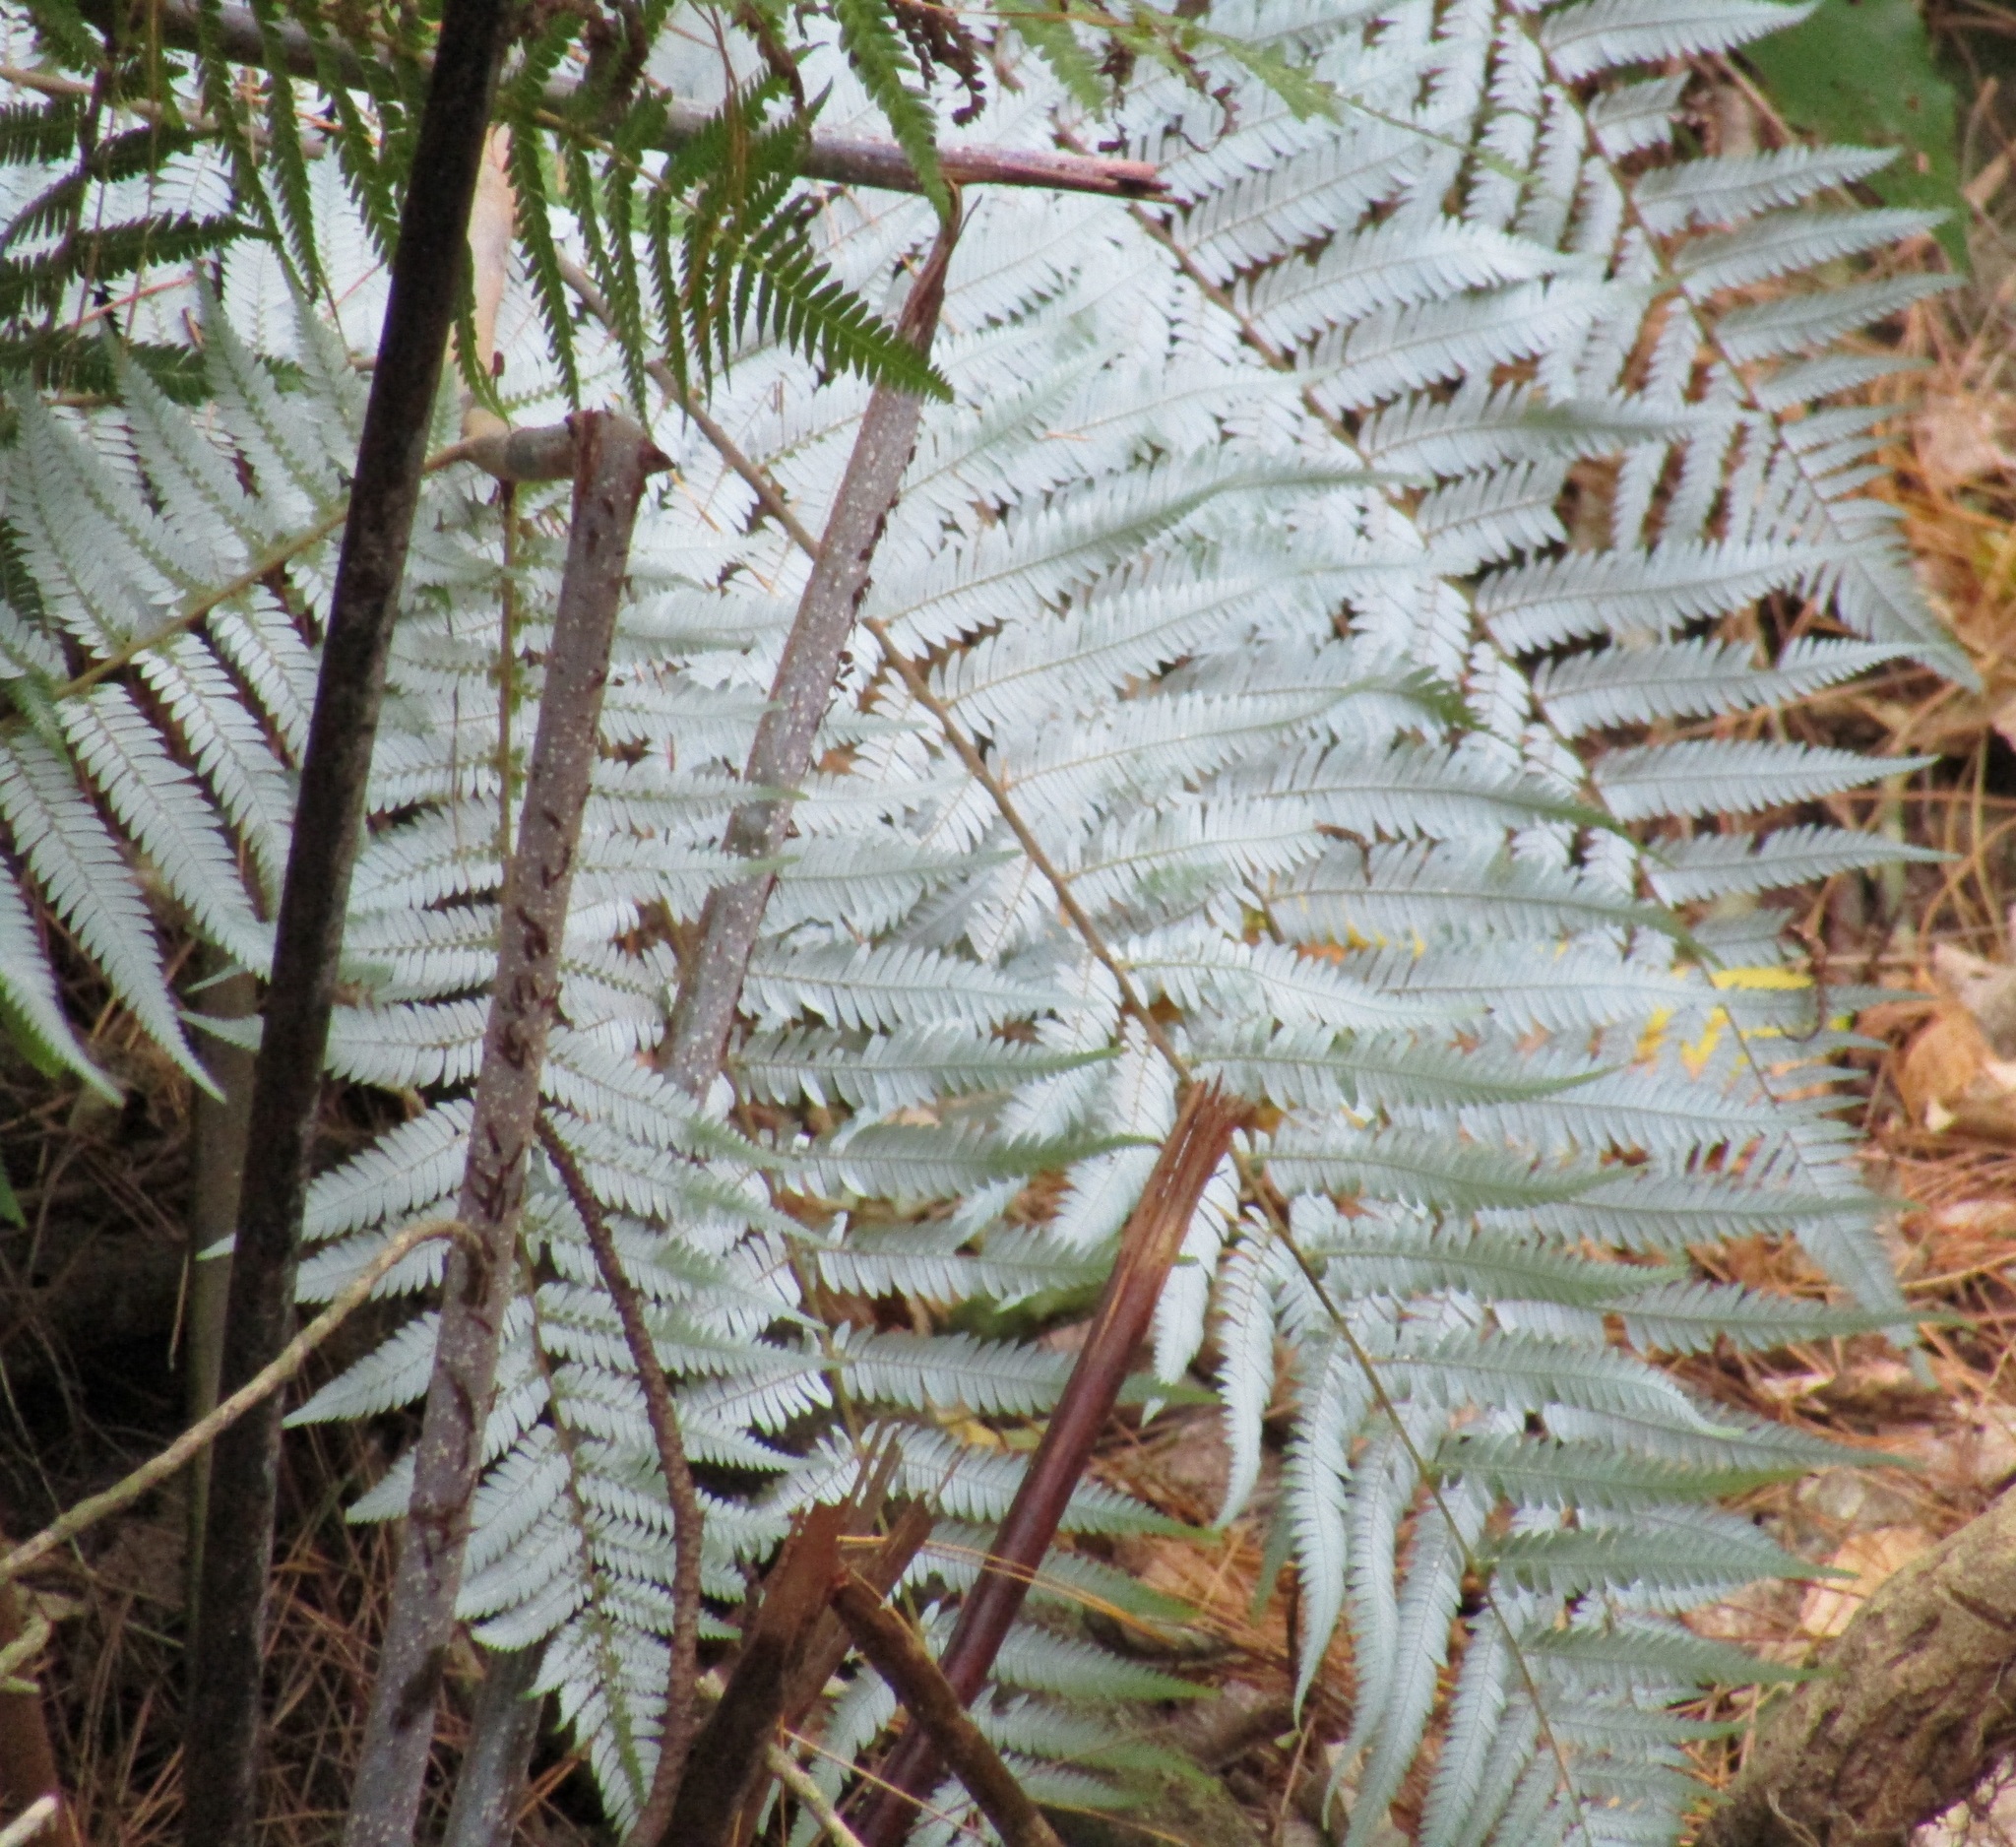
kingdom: Plantae
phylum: Tracheophyta
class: Polypodiopsida
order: Cyatheales
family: Cyatheaceae
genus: Alsophila
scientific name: Alsophila dealbata
